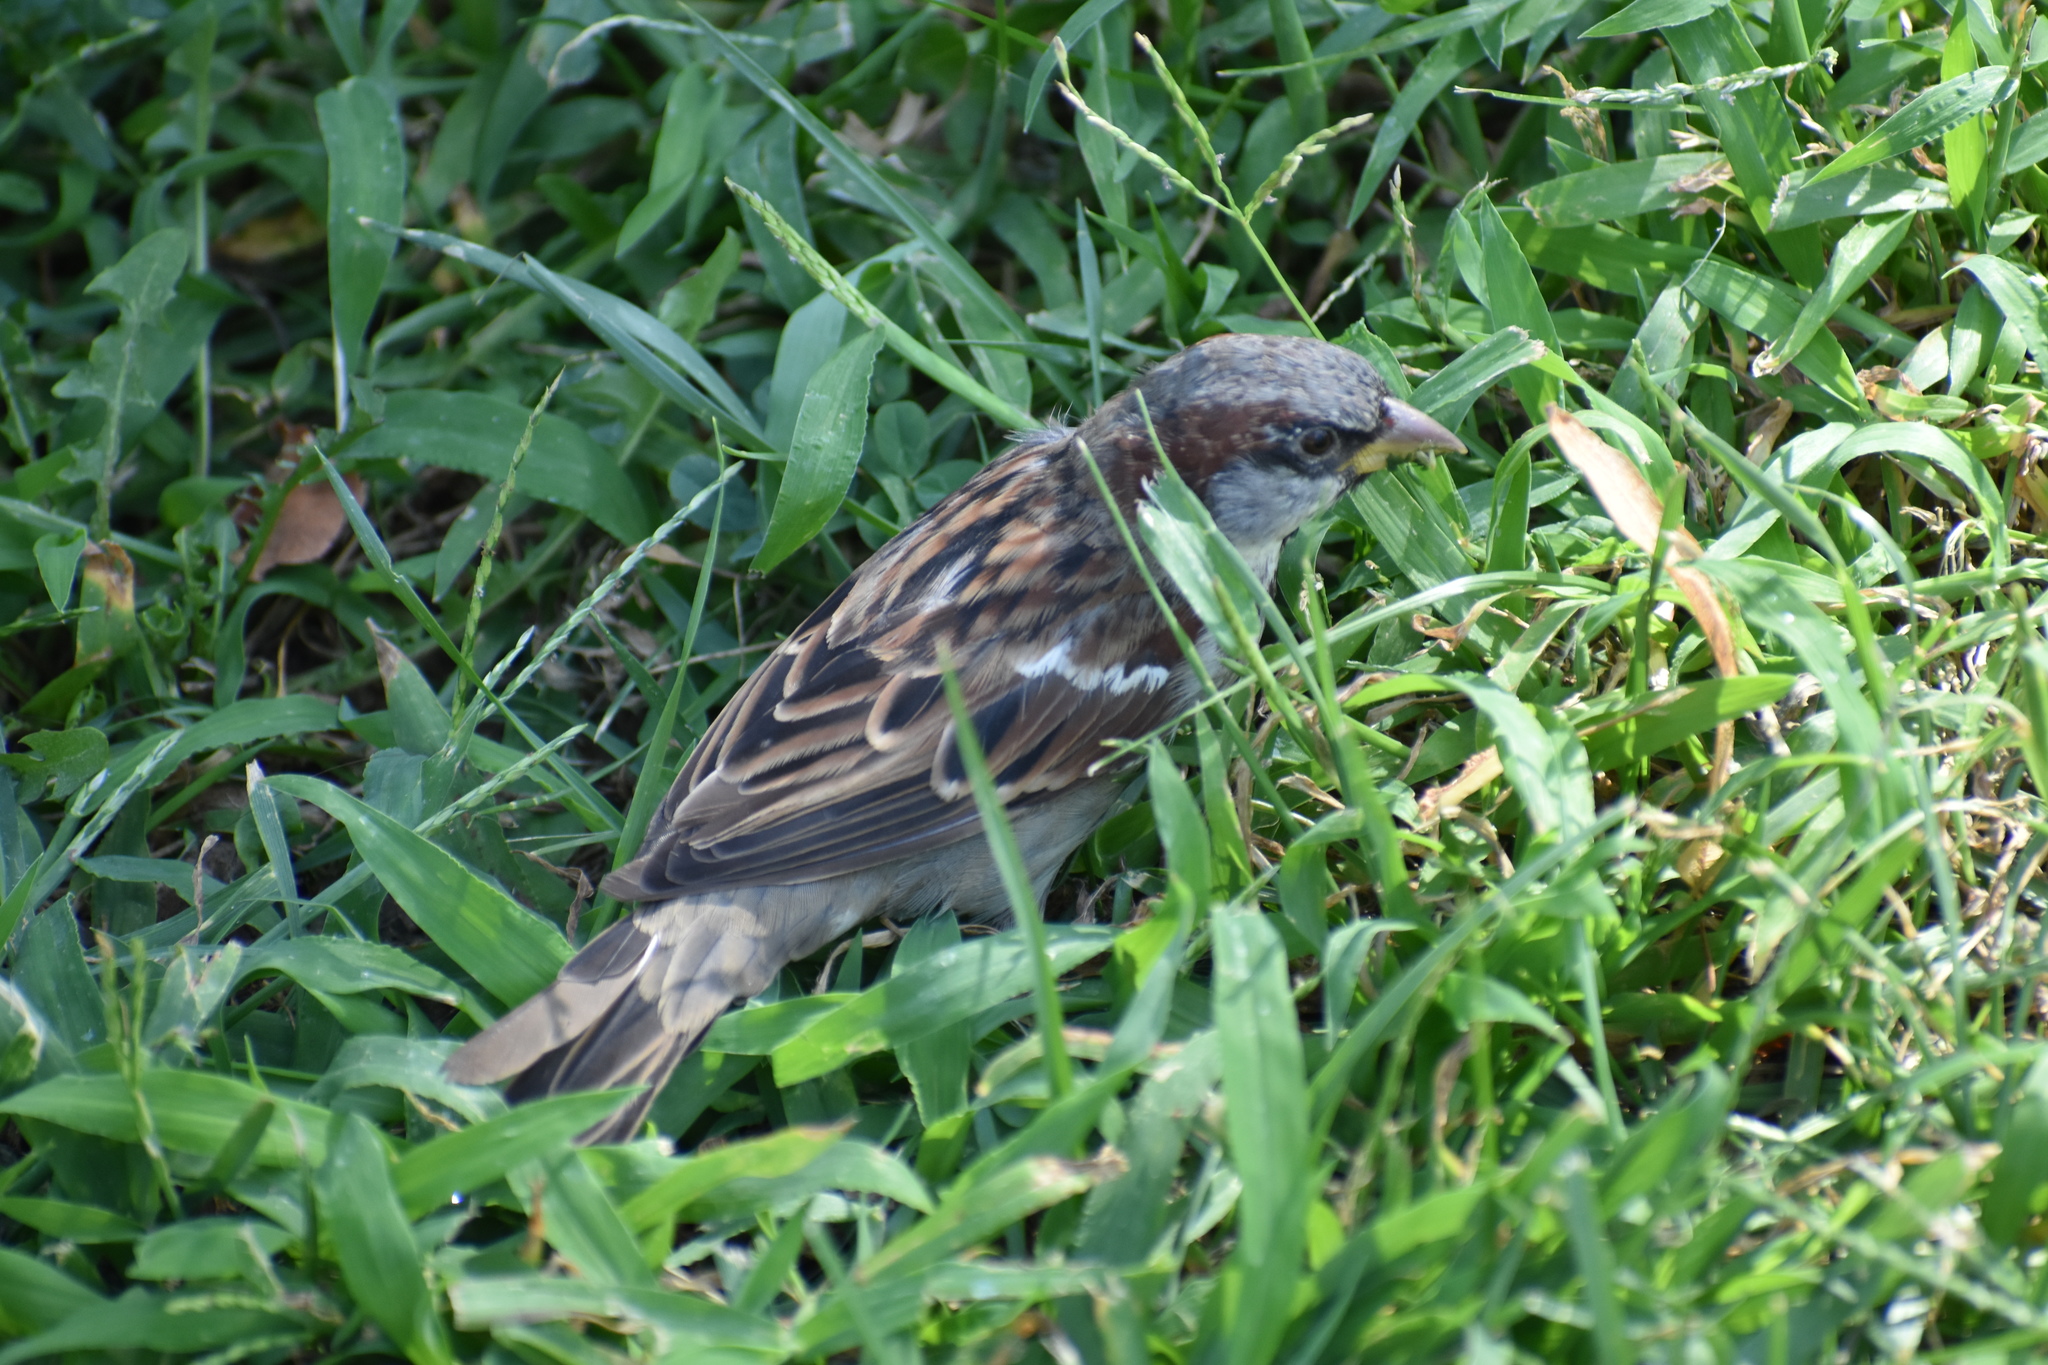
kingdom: Animalia
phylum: Chordata
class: Aves
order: Passeriformes
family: Passeridae
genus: Passer
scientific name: Passer domesticus
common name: House sparrow
